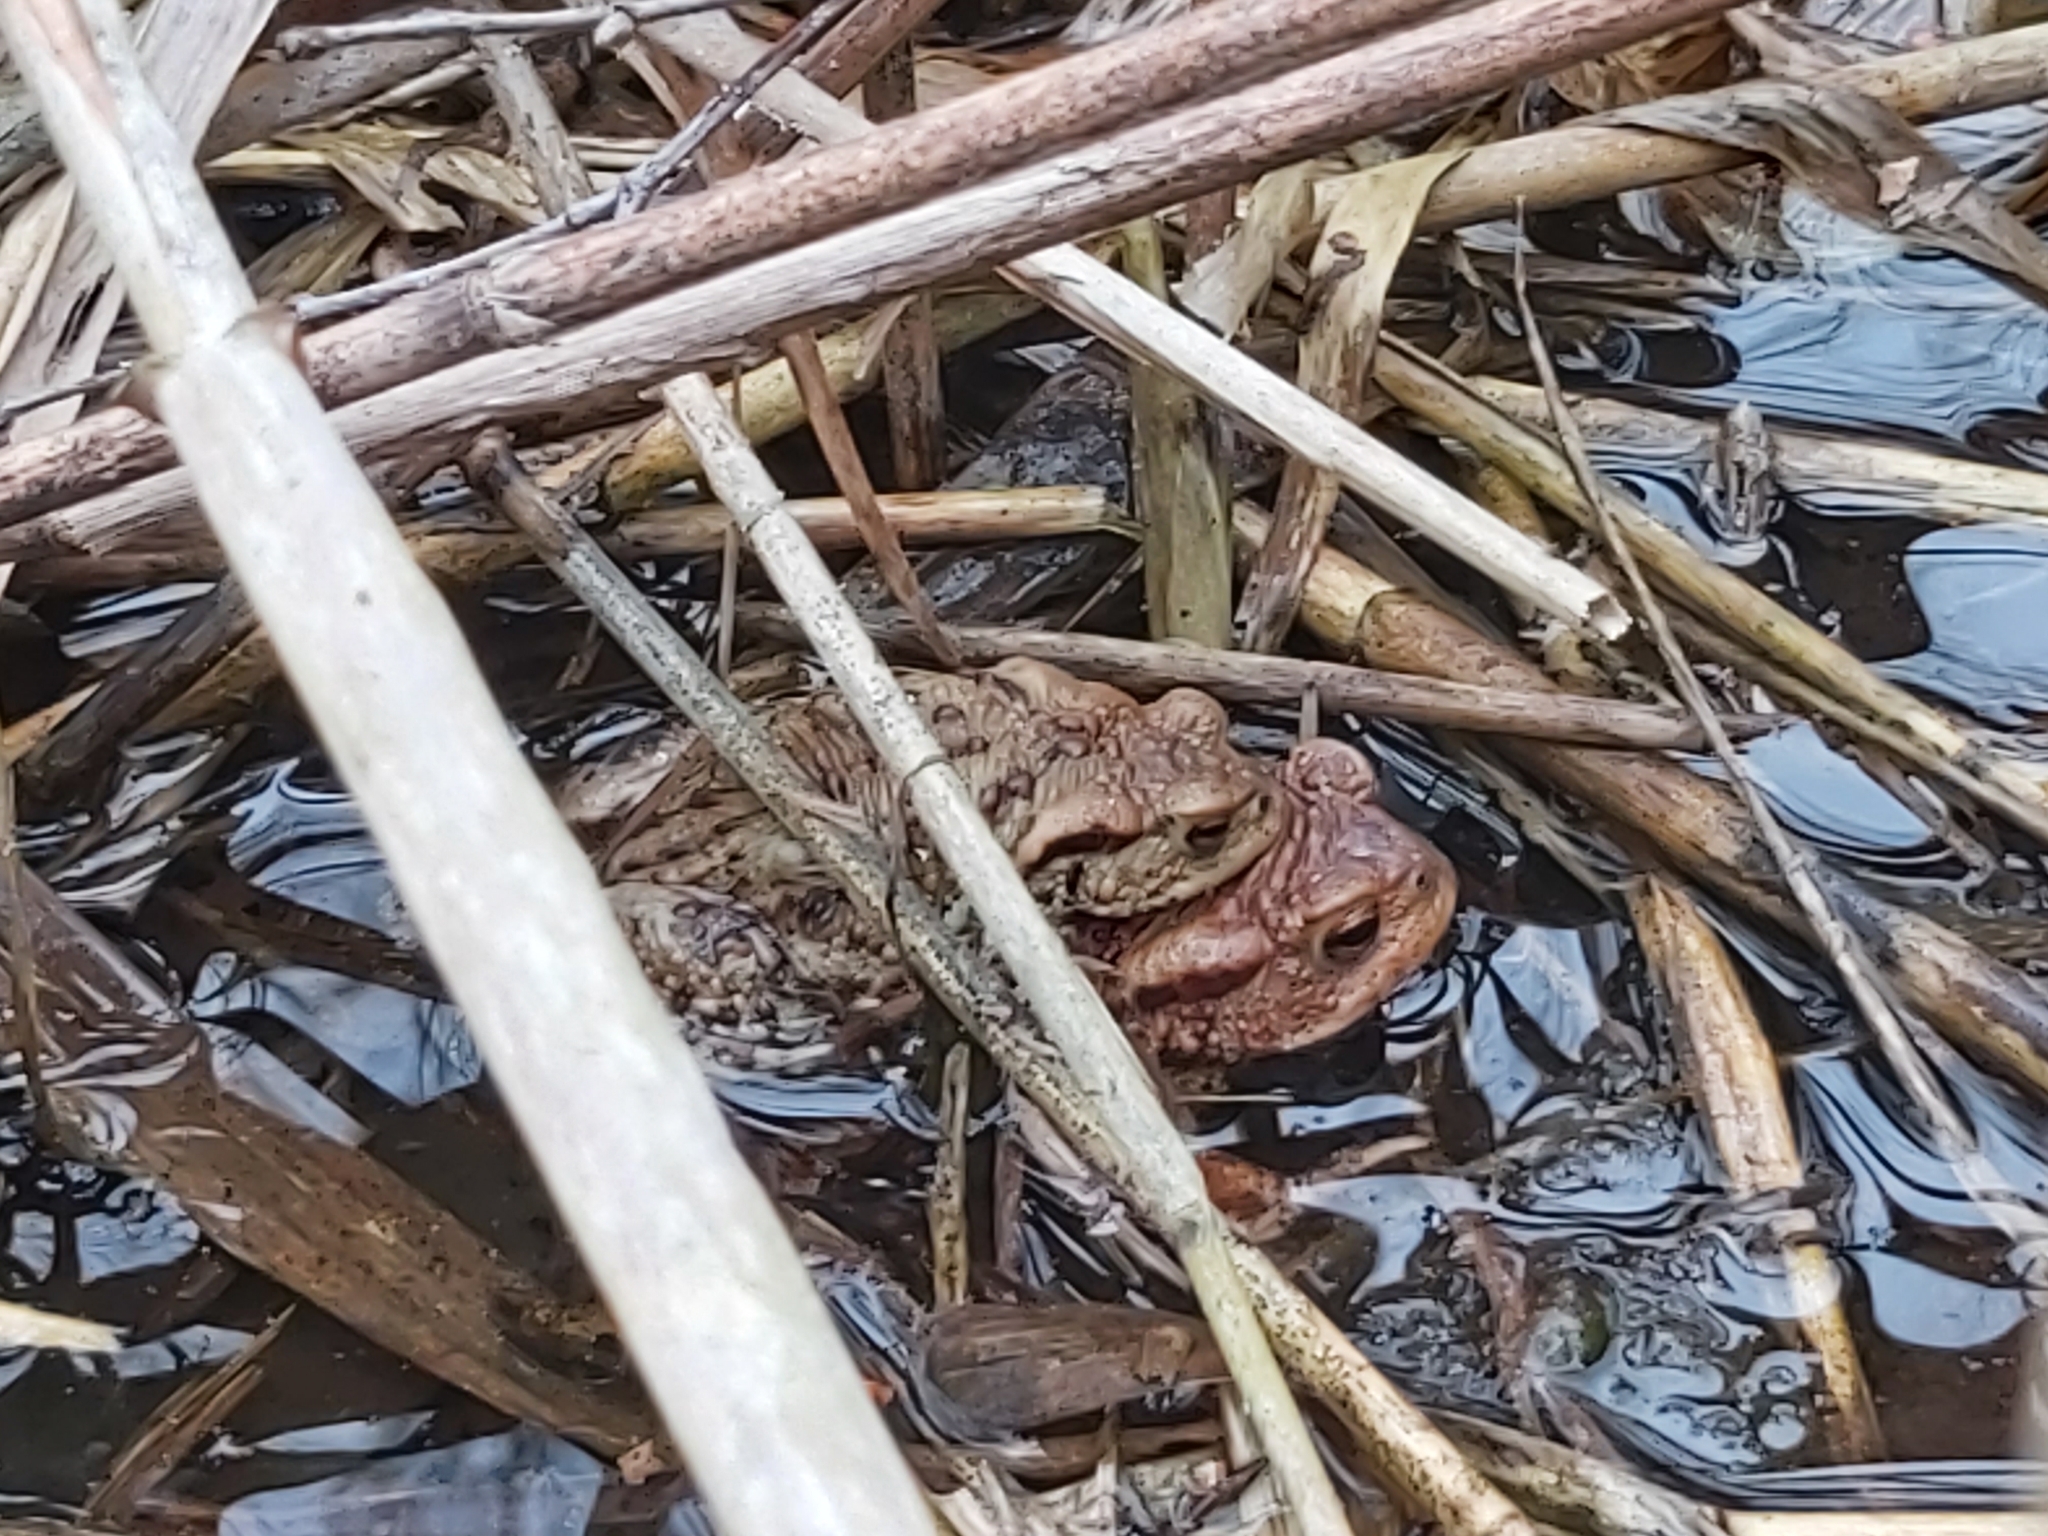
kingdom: Animalia
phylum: Chordata
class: Amphibia
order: Anura
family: Bufonidae
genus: Bufo
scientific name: Bufo bufo
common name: Common toad
